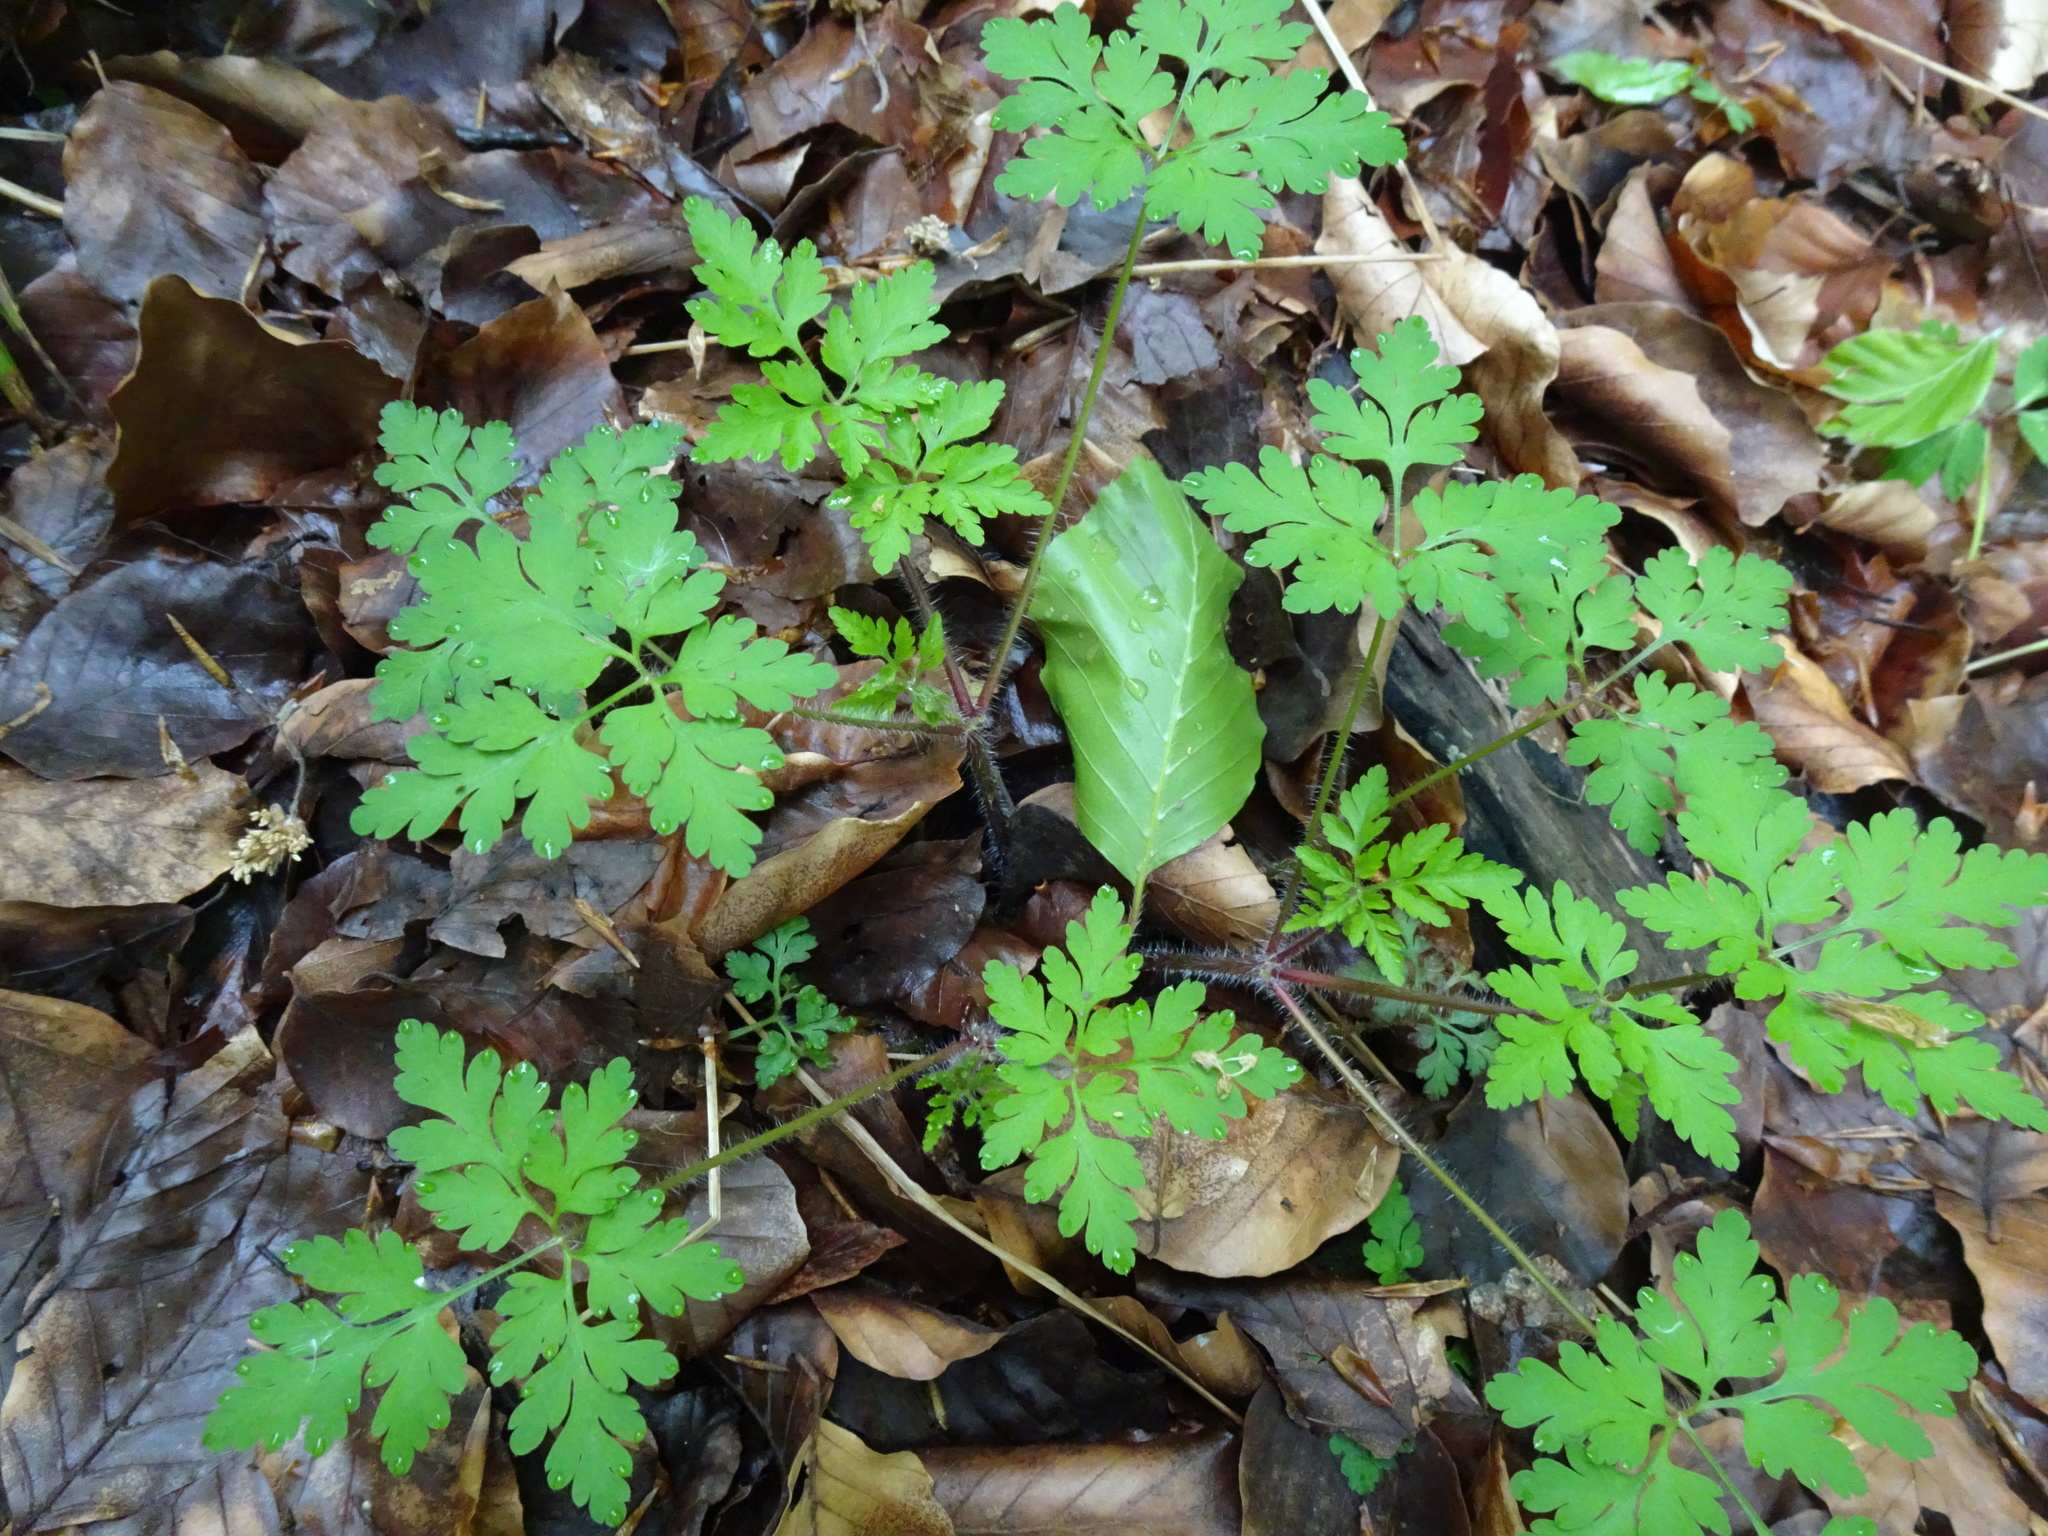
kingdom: Plantae
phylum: Tracheophyta
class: Magnoliopsida
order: Geraniales
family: Geraniaceae
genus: Geranium
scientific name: Geranium robertianum
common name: Herb-robert
